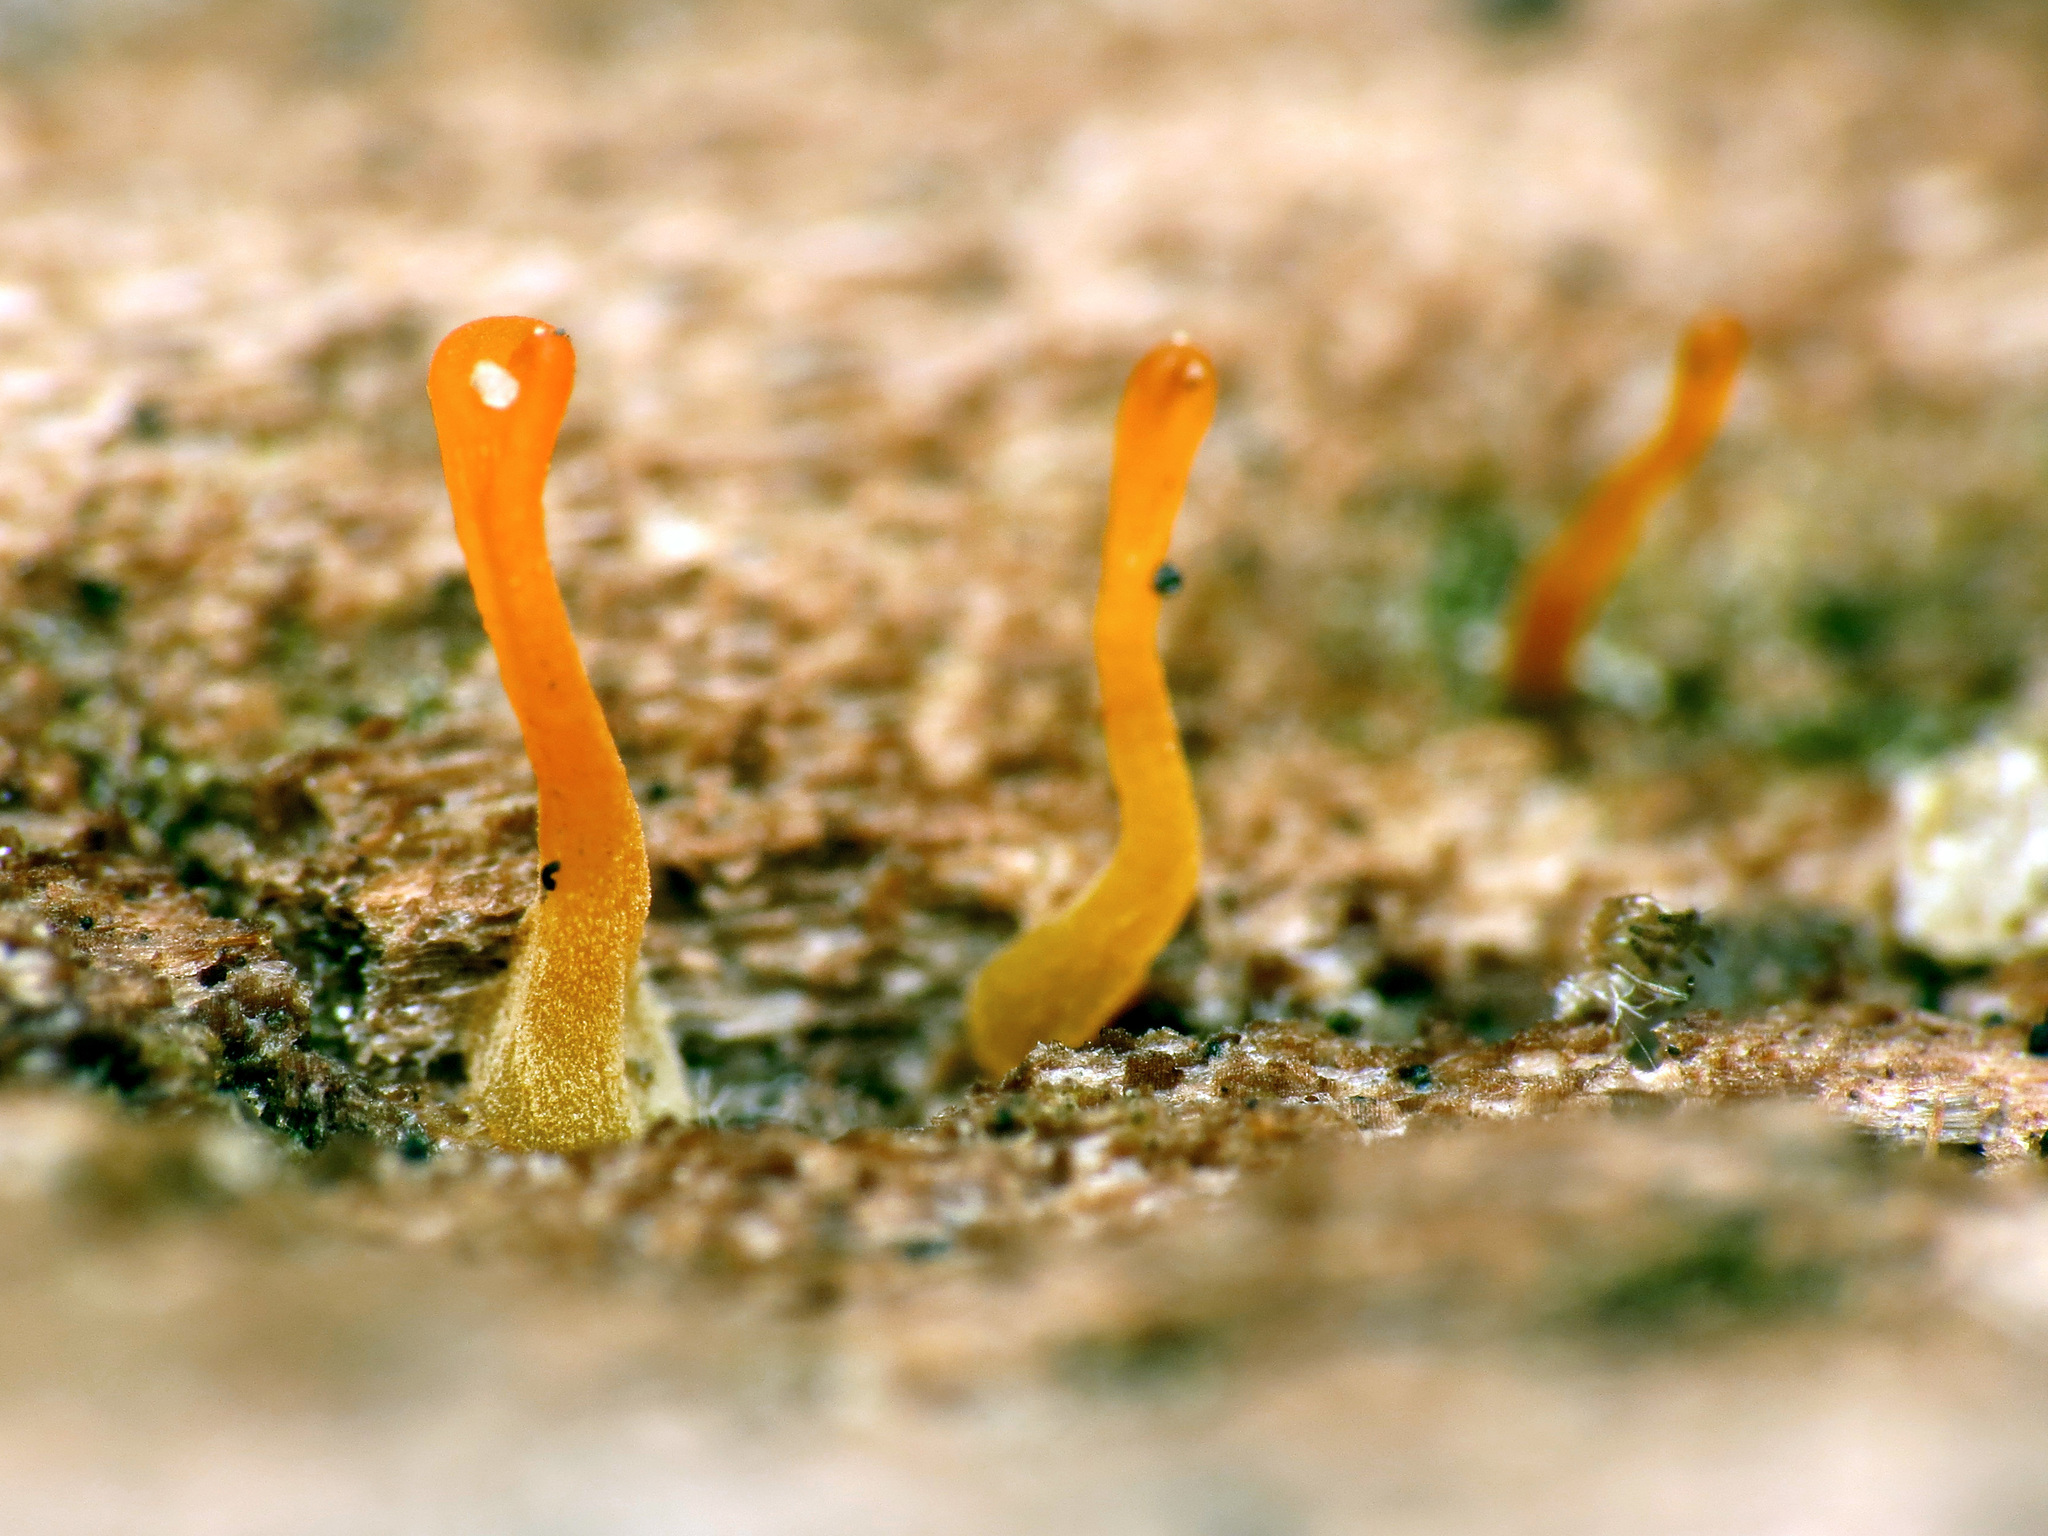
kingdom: Fungi
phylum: Basidiomycota
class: Dacrymycetes
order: Dacrymycetales
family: Dacrymycetaceae
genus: Dacrymyces
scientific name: Dacrymyces
